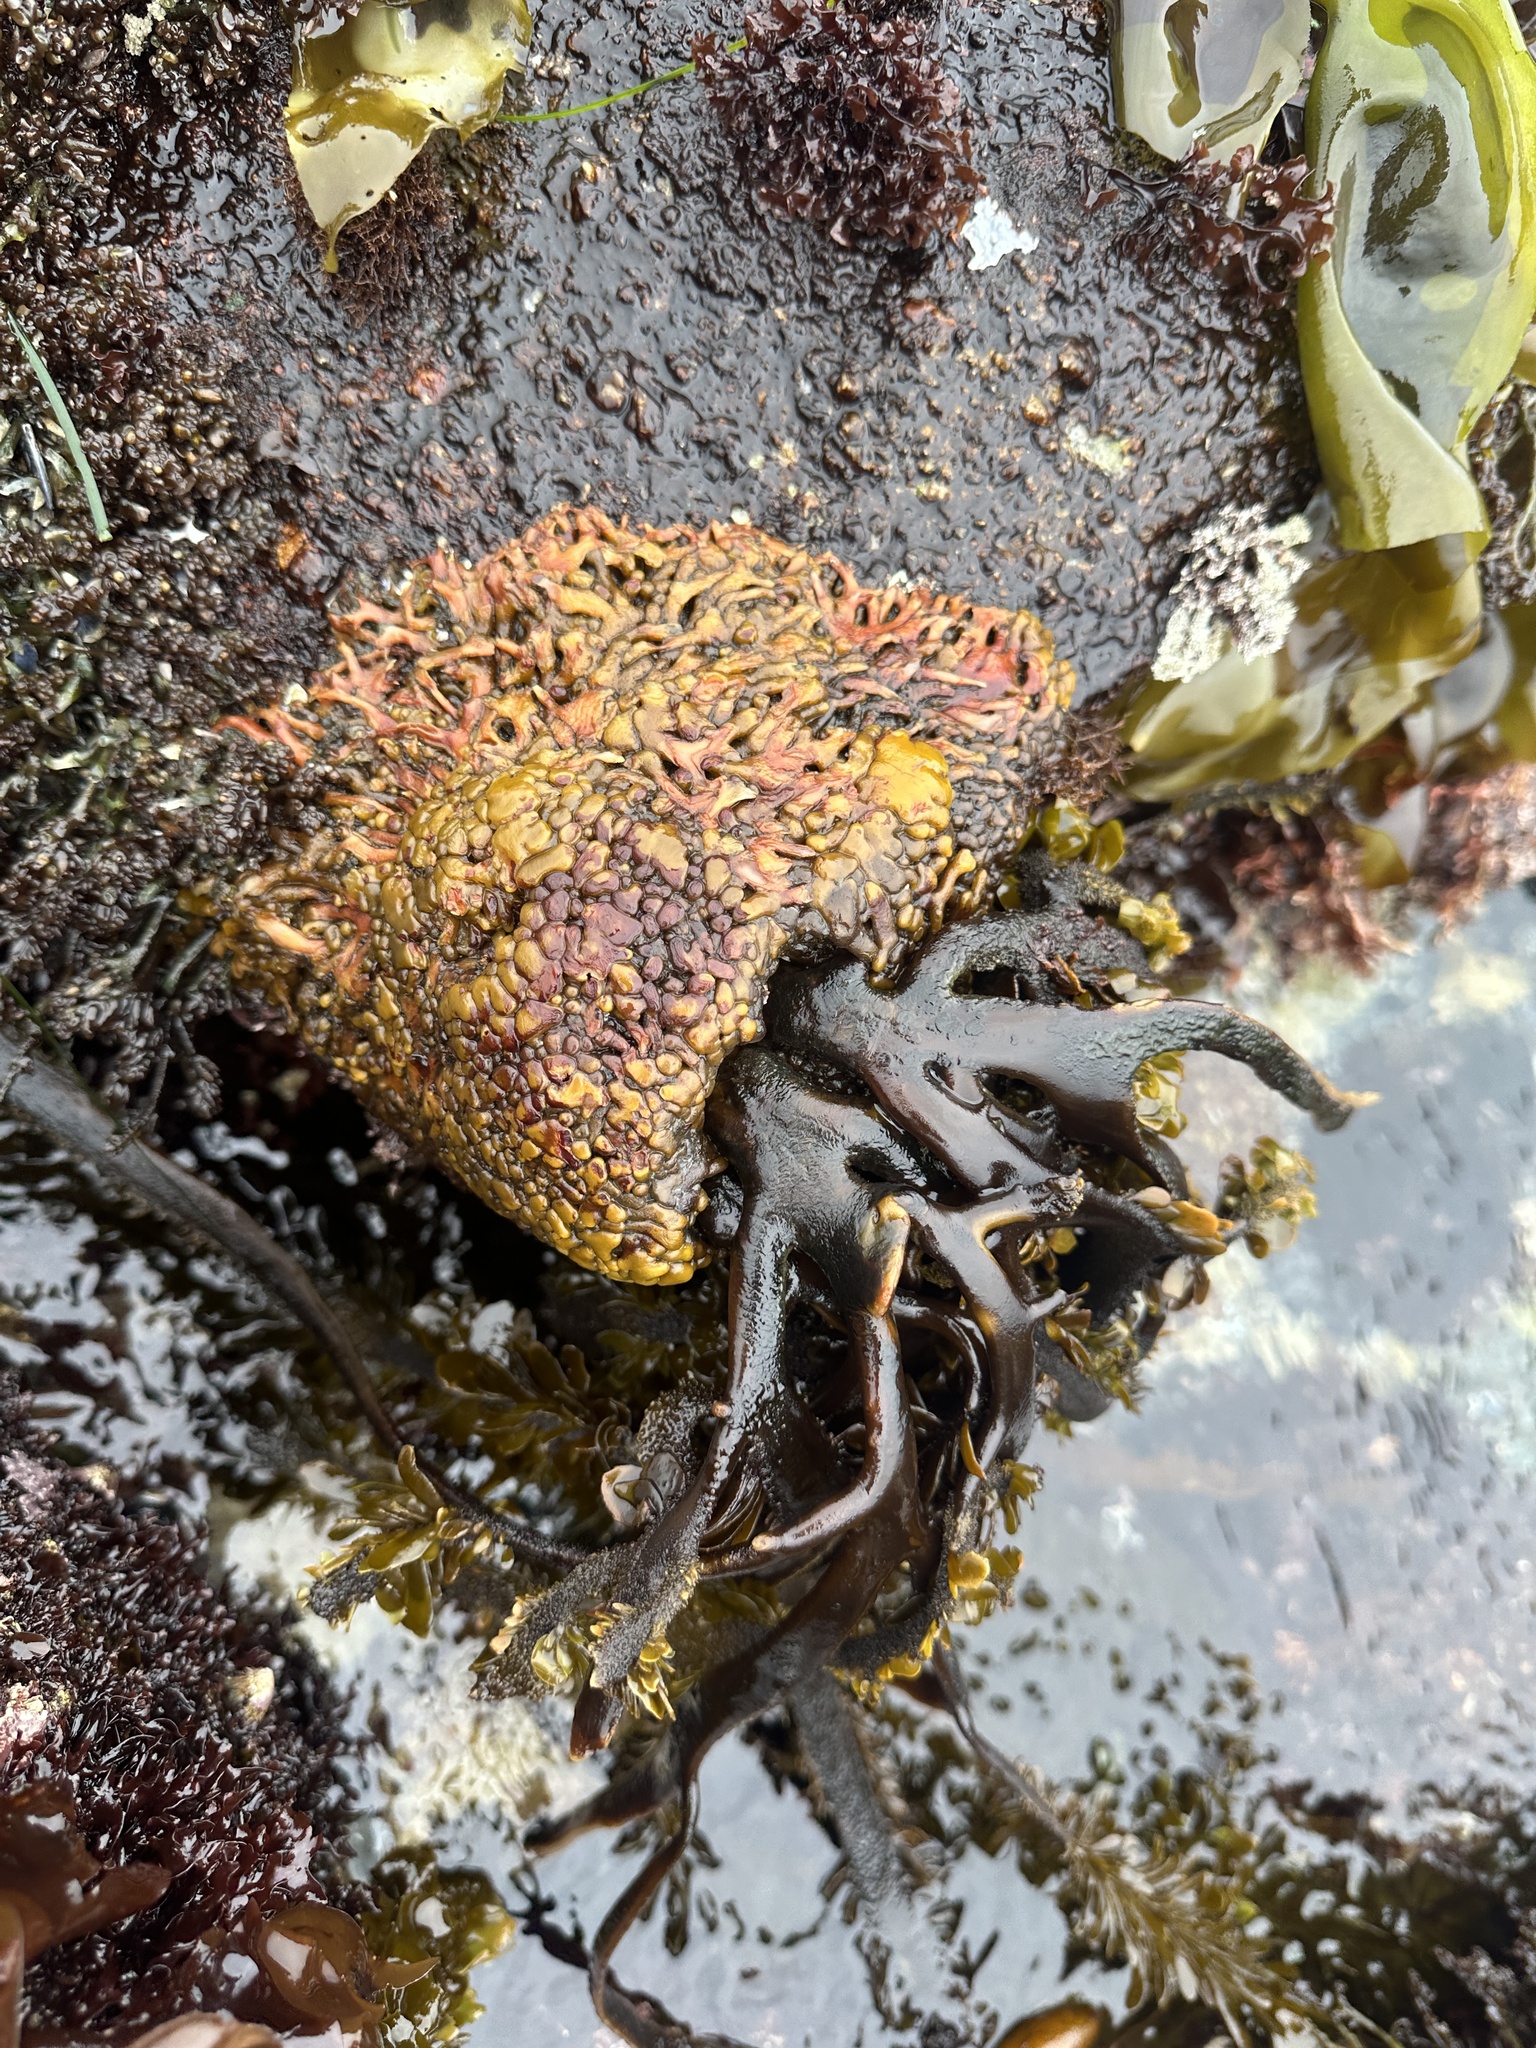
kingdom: Chromista
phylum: Ochrophyta
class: Phaeophyceae
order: Laminariales
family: Lessoniaceae
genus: Egregia
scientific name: Egregia menziesii
